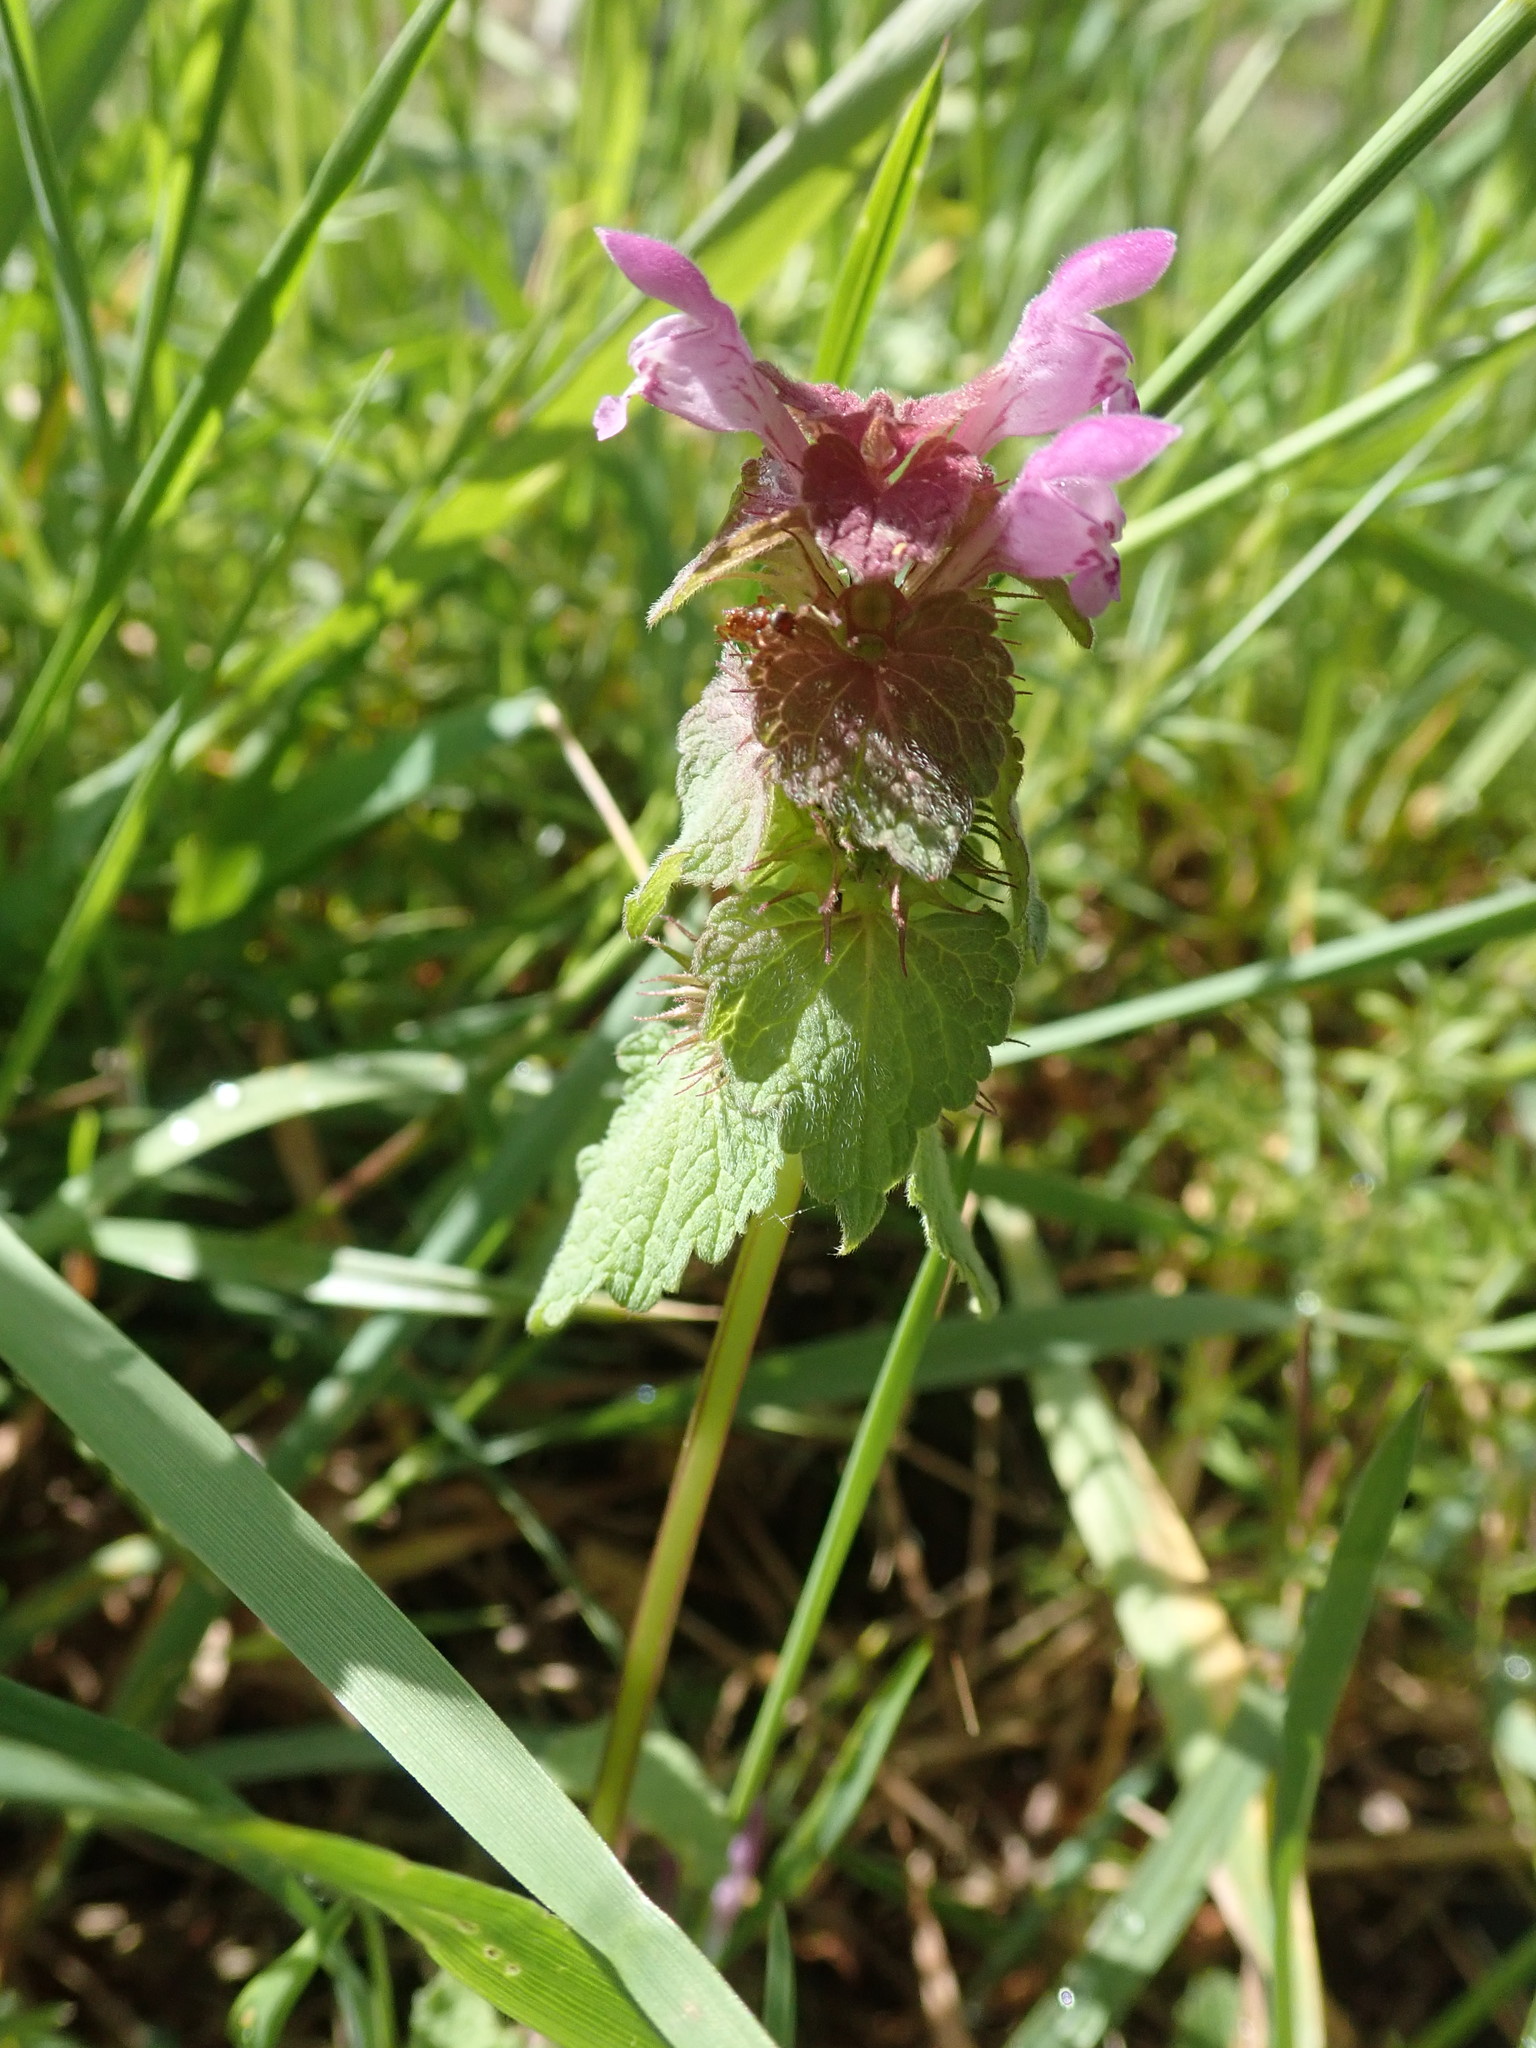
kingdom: Plantae
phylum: Tracheophyta
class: Magnoliopsida
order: Lamiales
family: Lamiaceae
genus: Lamium
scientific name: Lamium purpureum
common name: Red dead-nettle
